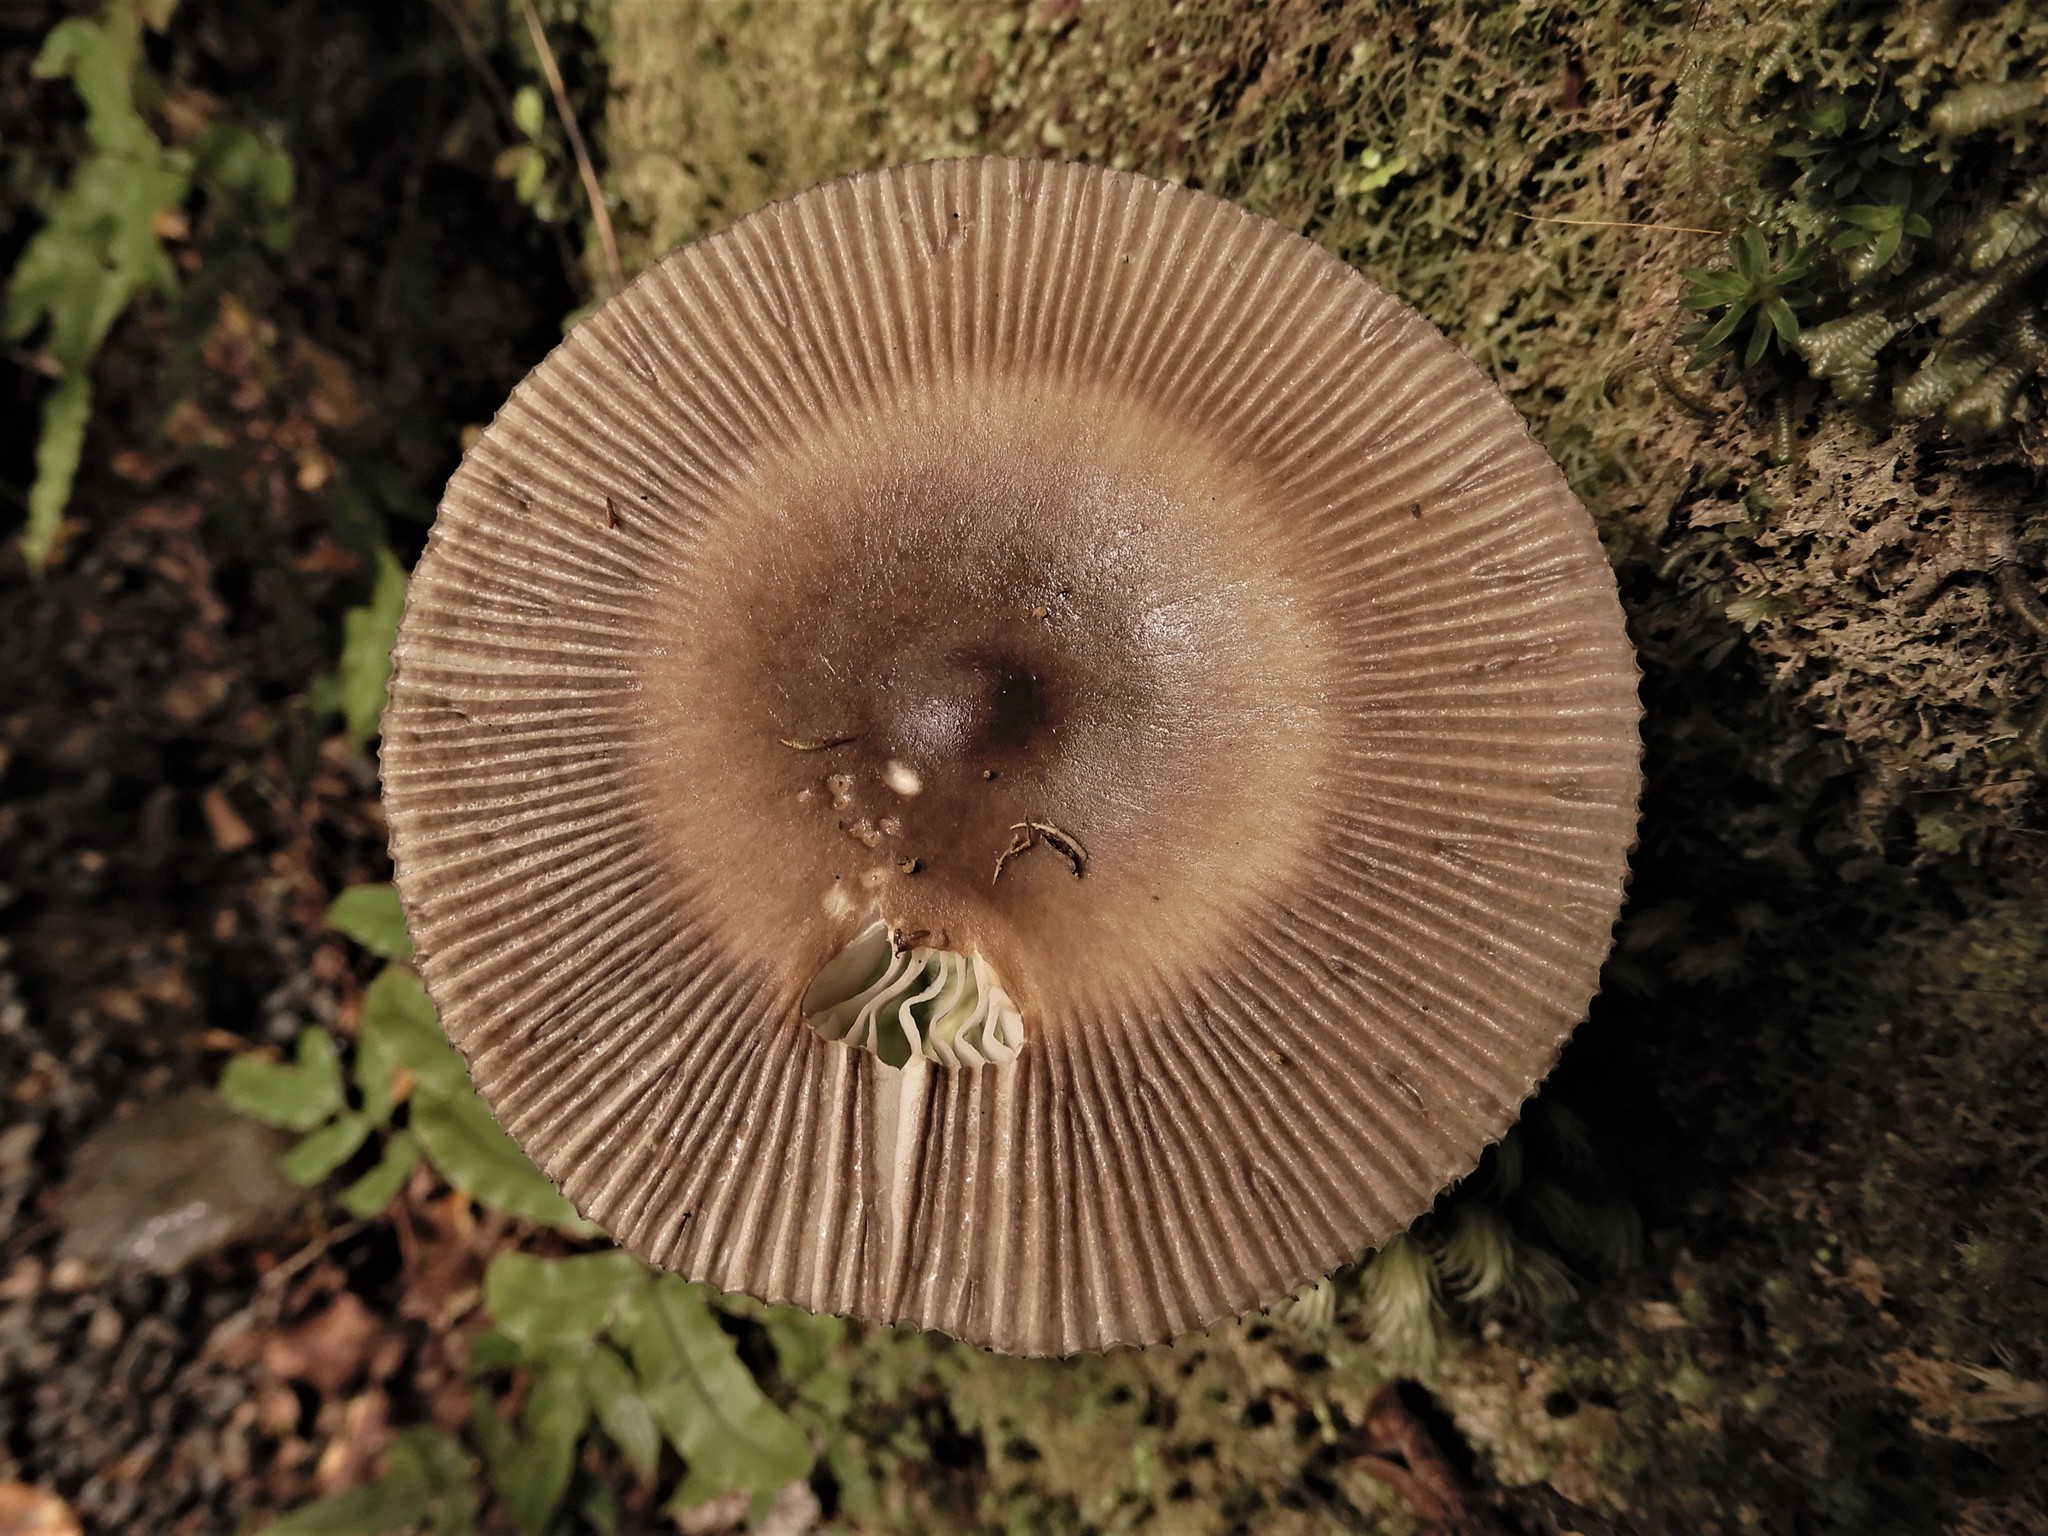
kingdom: Fungi
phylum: Basidiomycota
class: Agaricomycetes
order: Agaricales
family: Amanitaceae
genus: Amanita
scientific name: Amanita pekeoides
